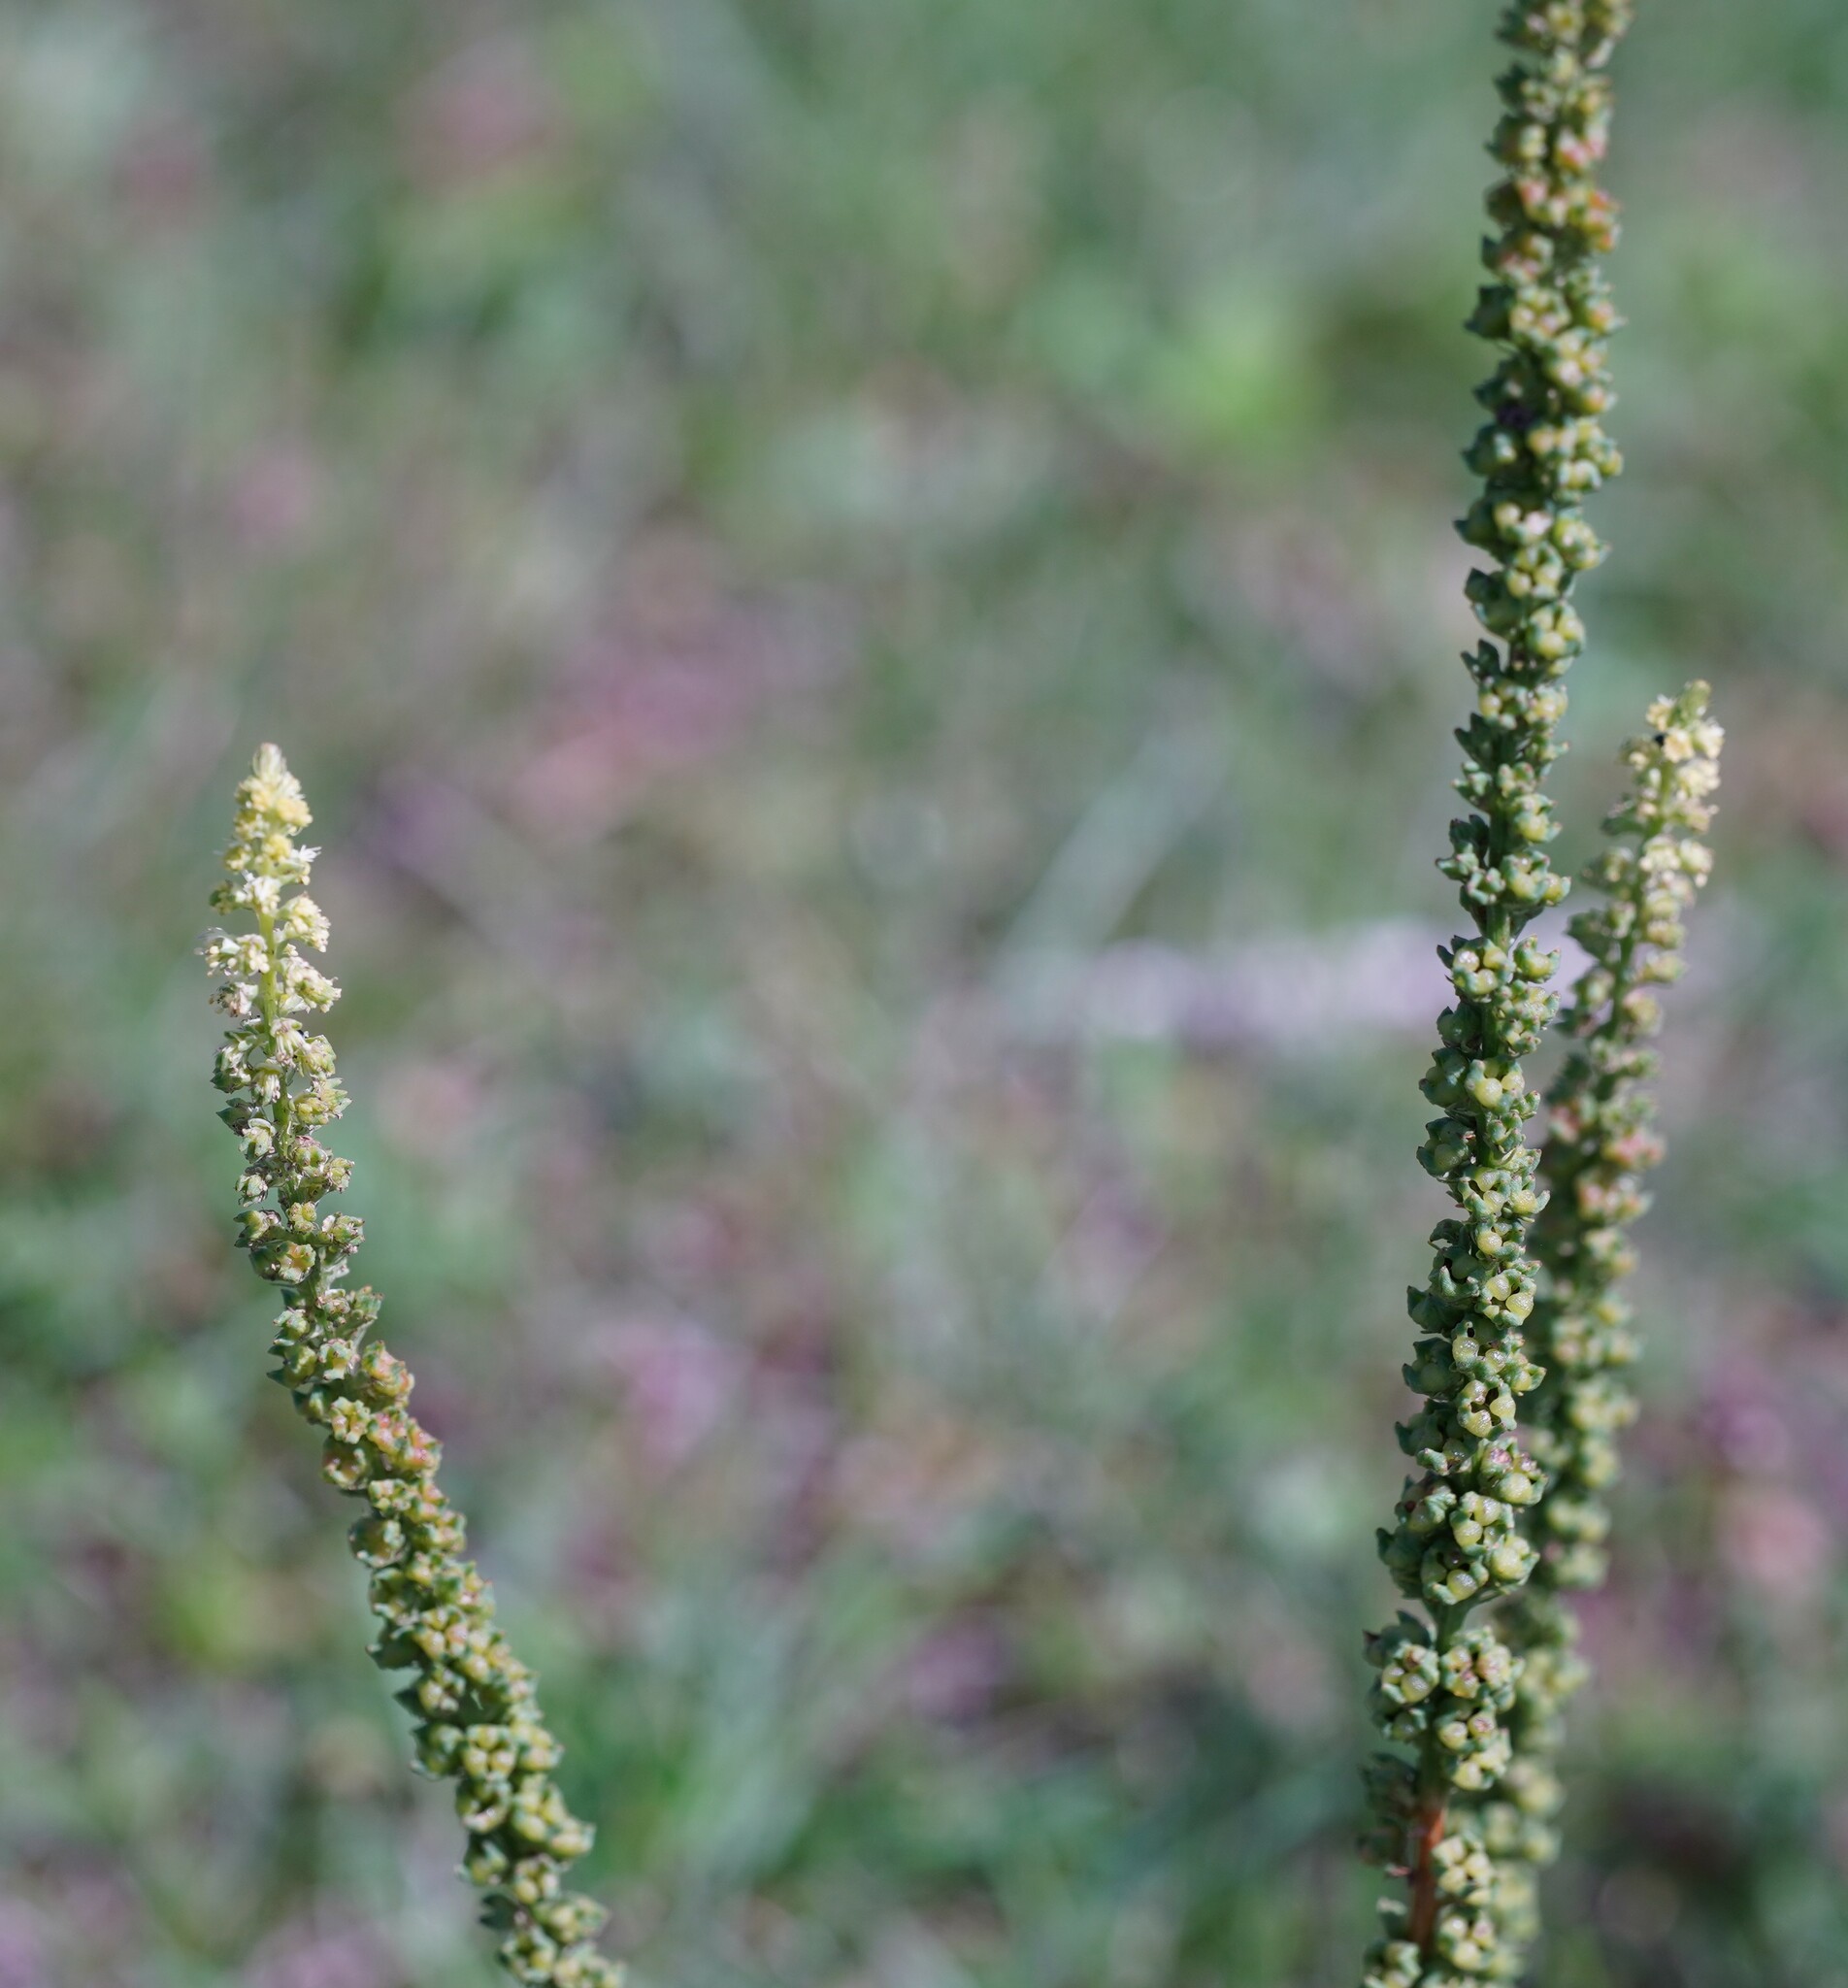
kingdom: Plantae
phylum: Tracheophyta
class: Magnoliopsida
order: Brassicales
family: Resedaceae
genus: Reseda
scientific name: Reseda luteola
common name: Weld
